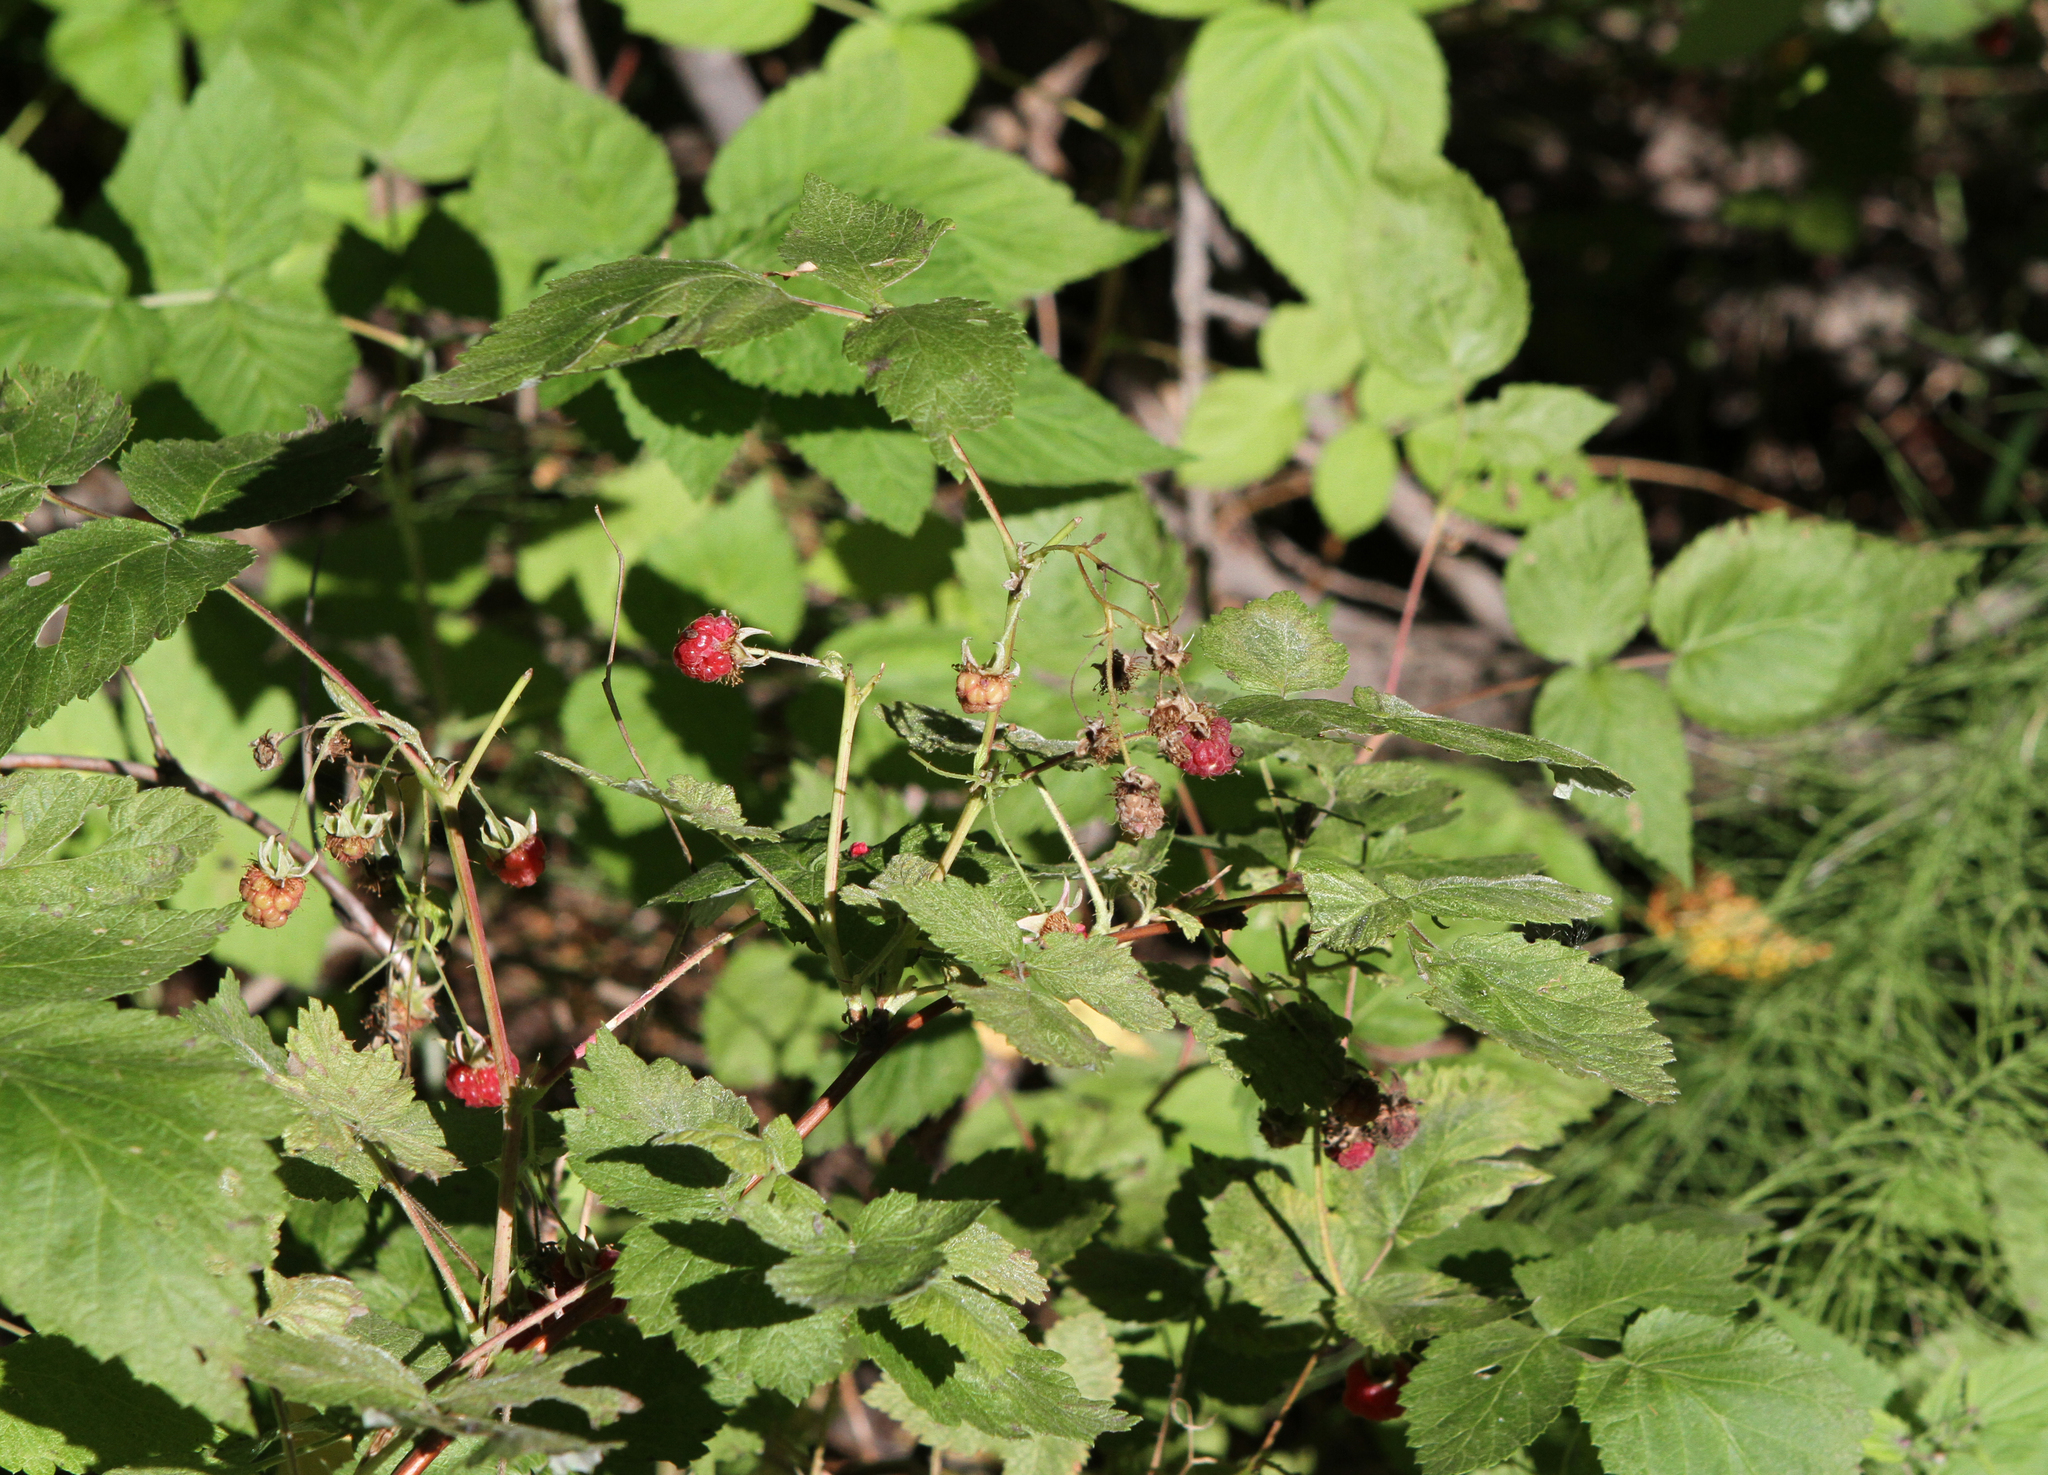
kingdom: Plantae
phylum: Tracheophyta
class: Magnoliopsida
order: Rosales
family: Rosaceae
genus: Rubus
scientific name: Rubus idaeus
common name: Raspberry
